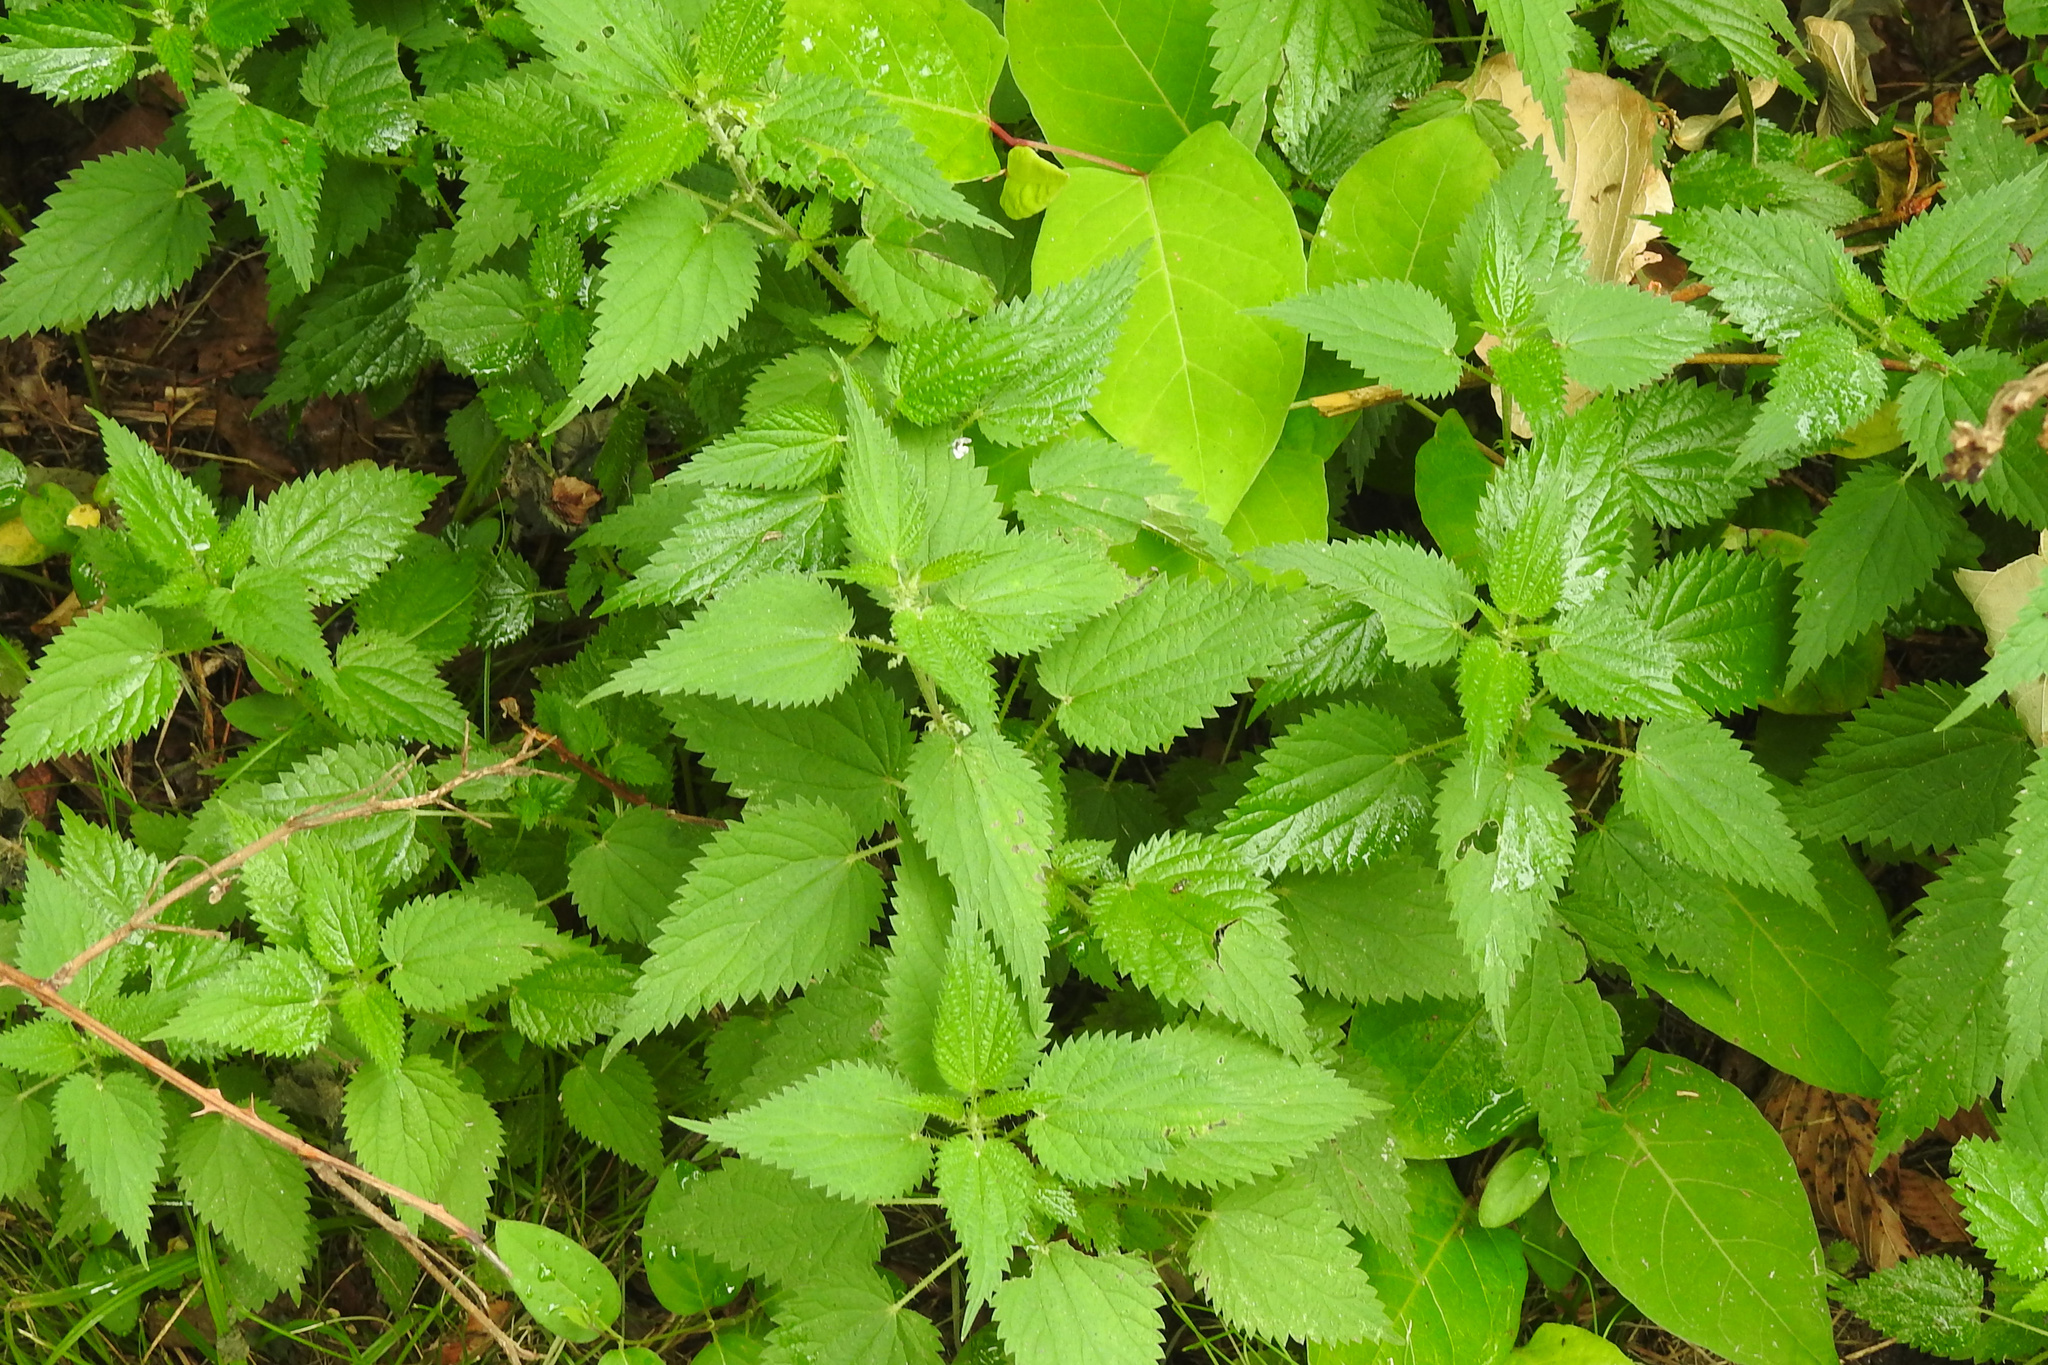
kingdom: Plantae
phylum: Tracheophyta
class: Magnoliopsida
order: Rosales
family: Urticaceae
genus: Urtica
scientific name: Urtica dioica
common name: Common nettle
